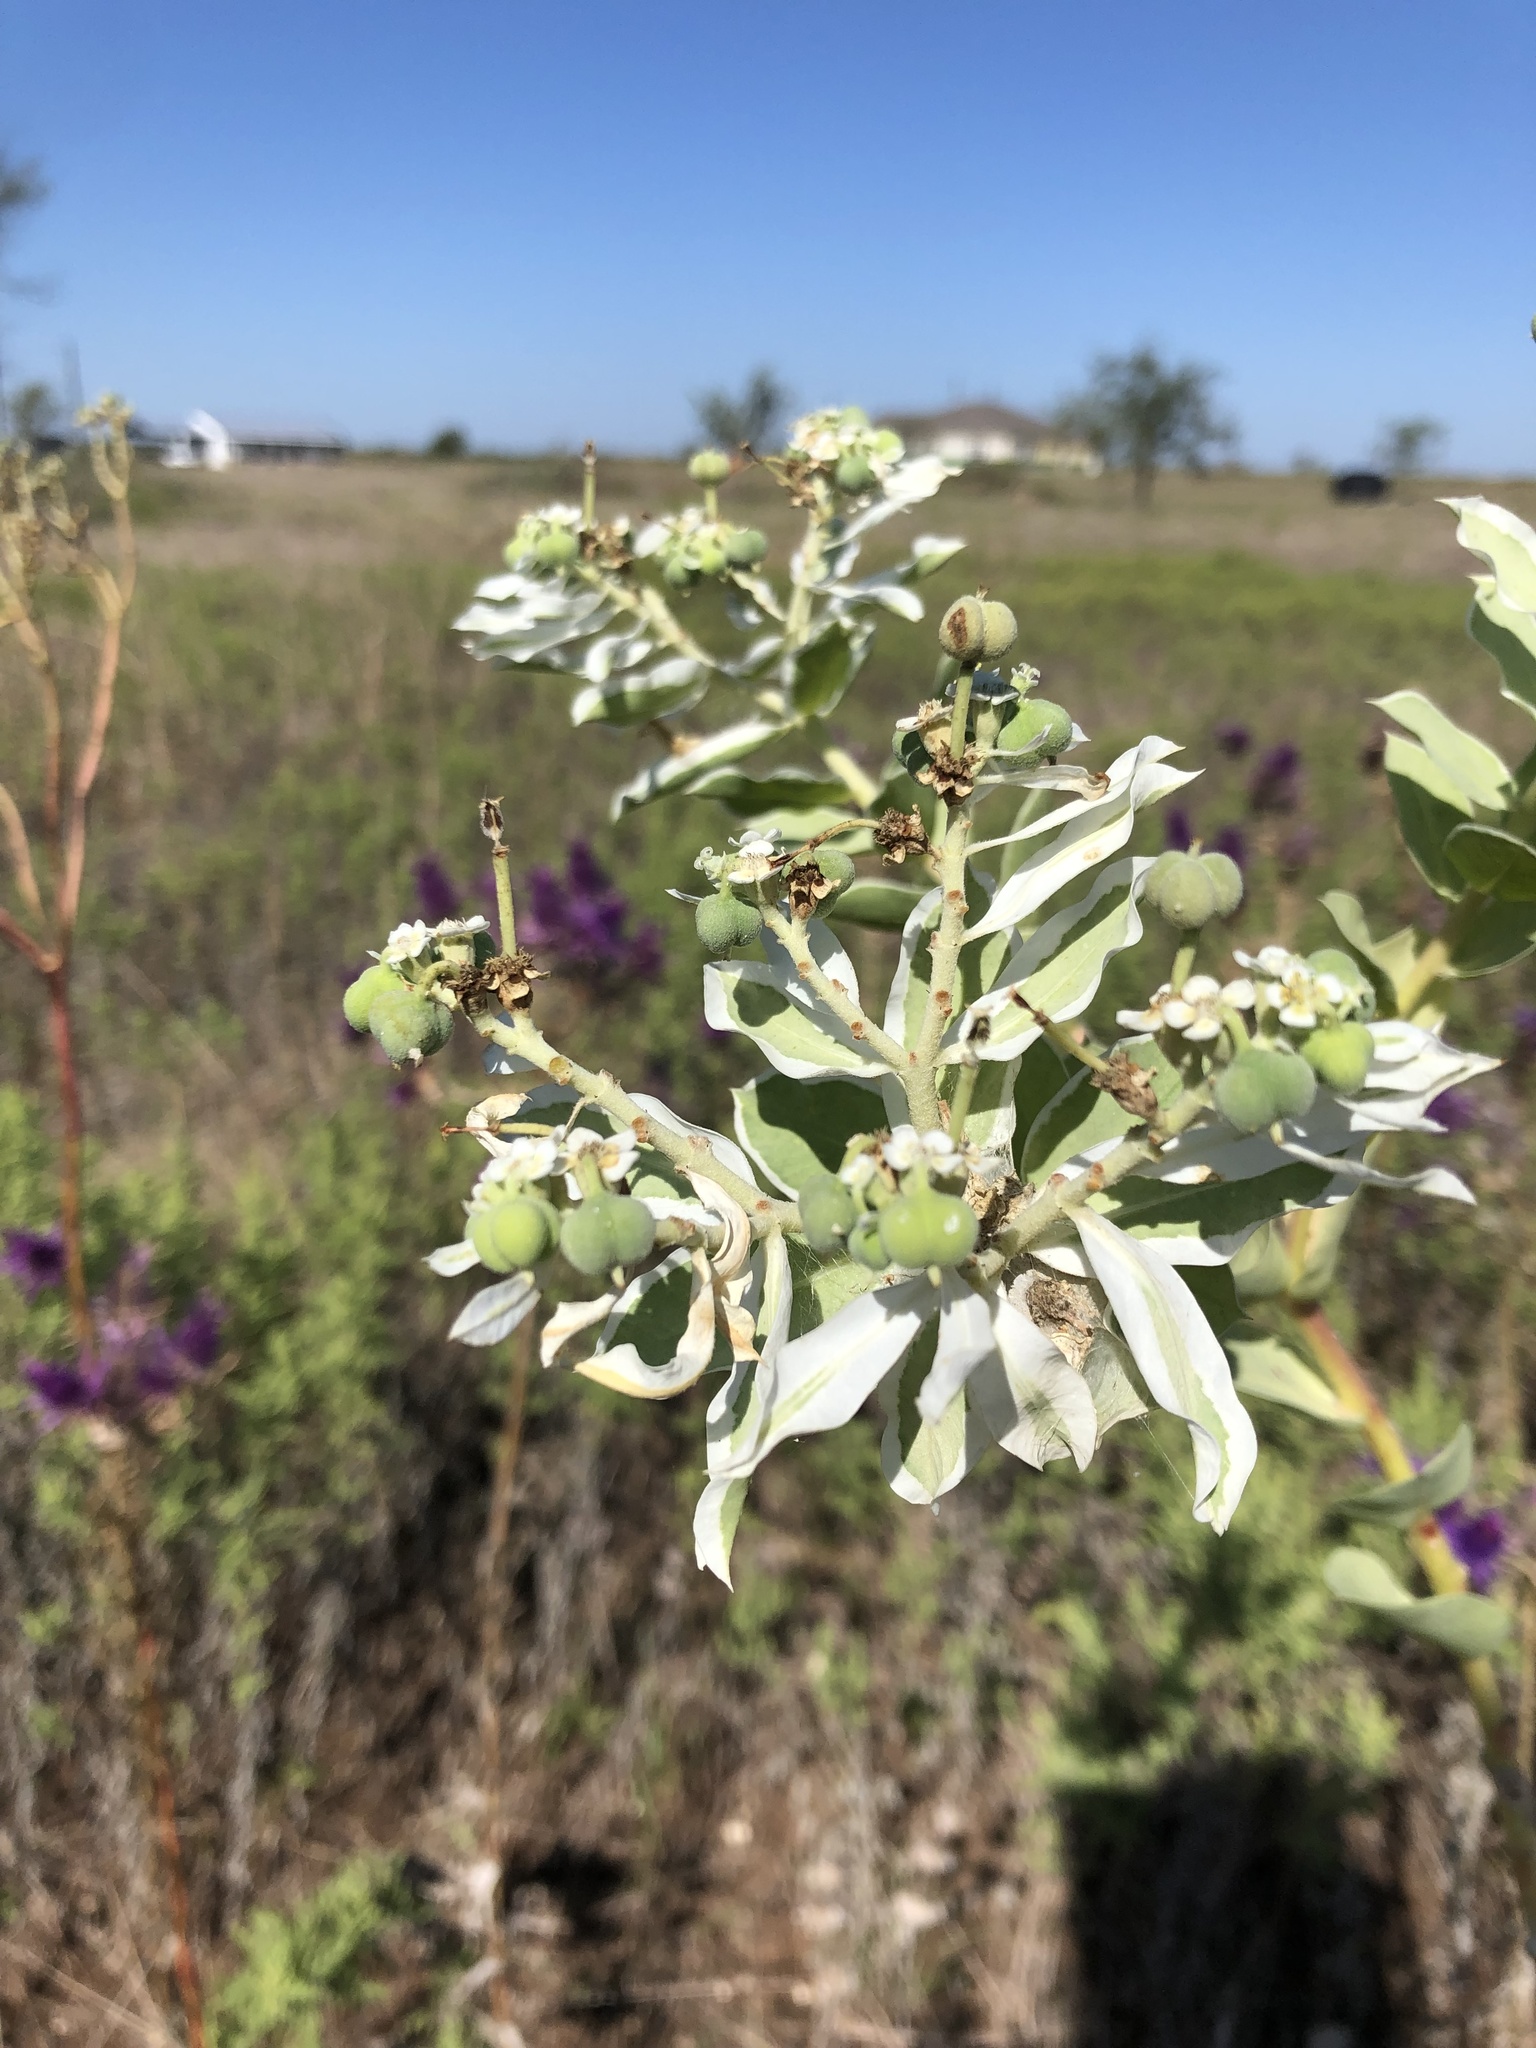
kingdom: Plantae
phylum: Tracheophyta
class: Magnoliopsida
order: Malpighiales
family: Euphorbiaceae
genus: Euphorbia
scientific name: Euphorbia marginata
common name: Ghostweed
